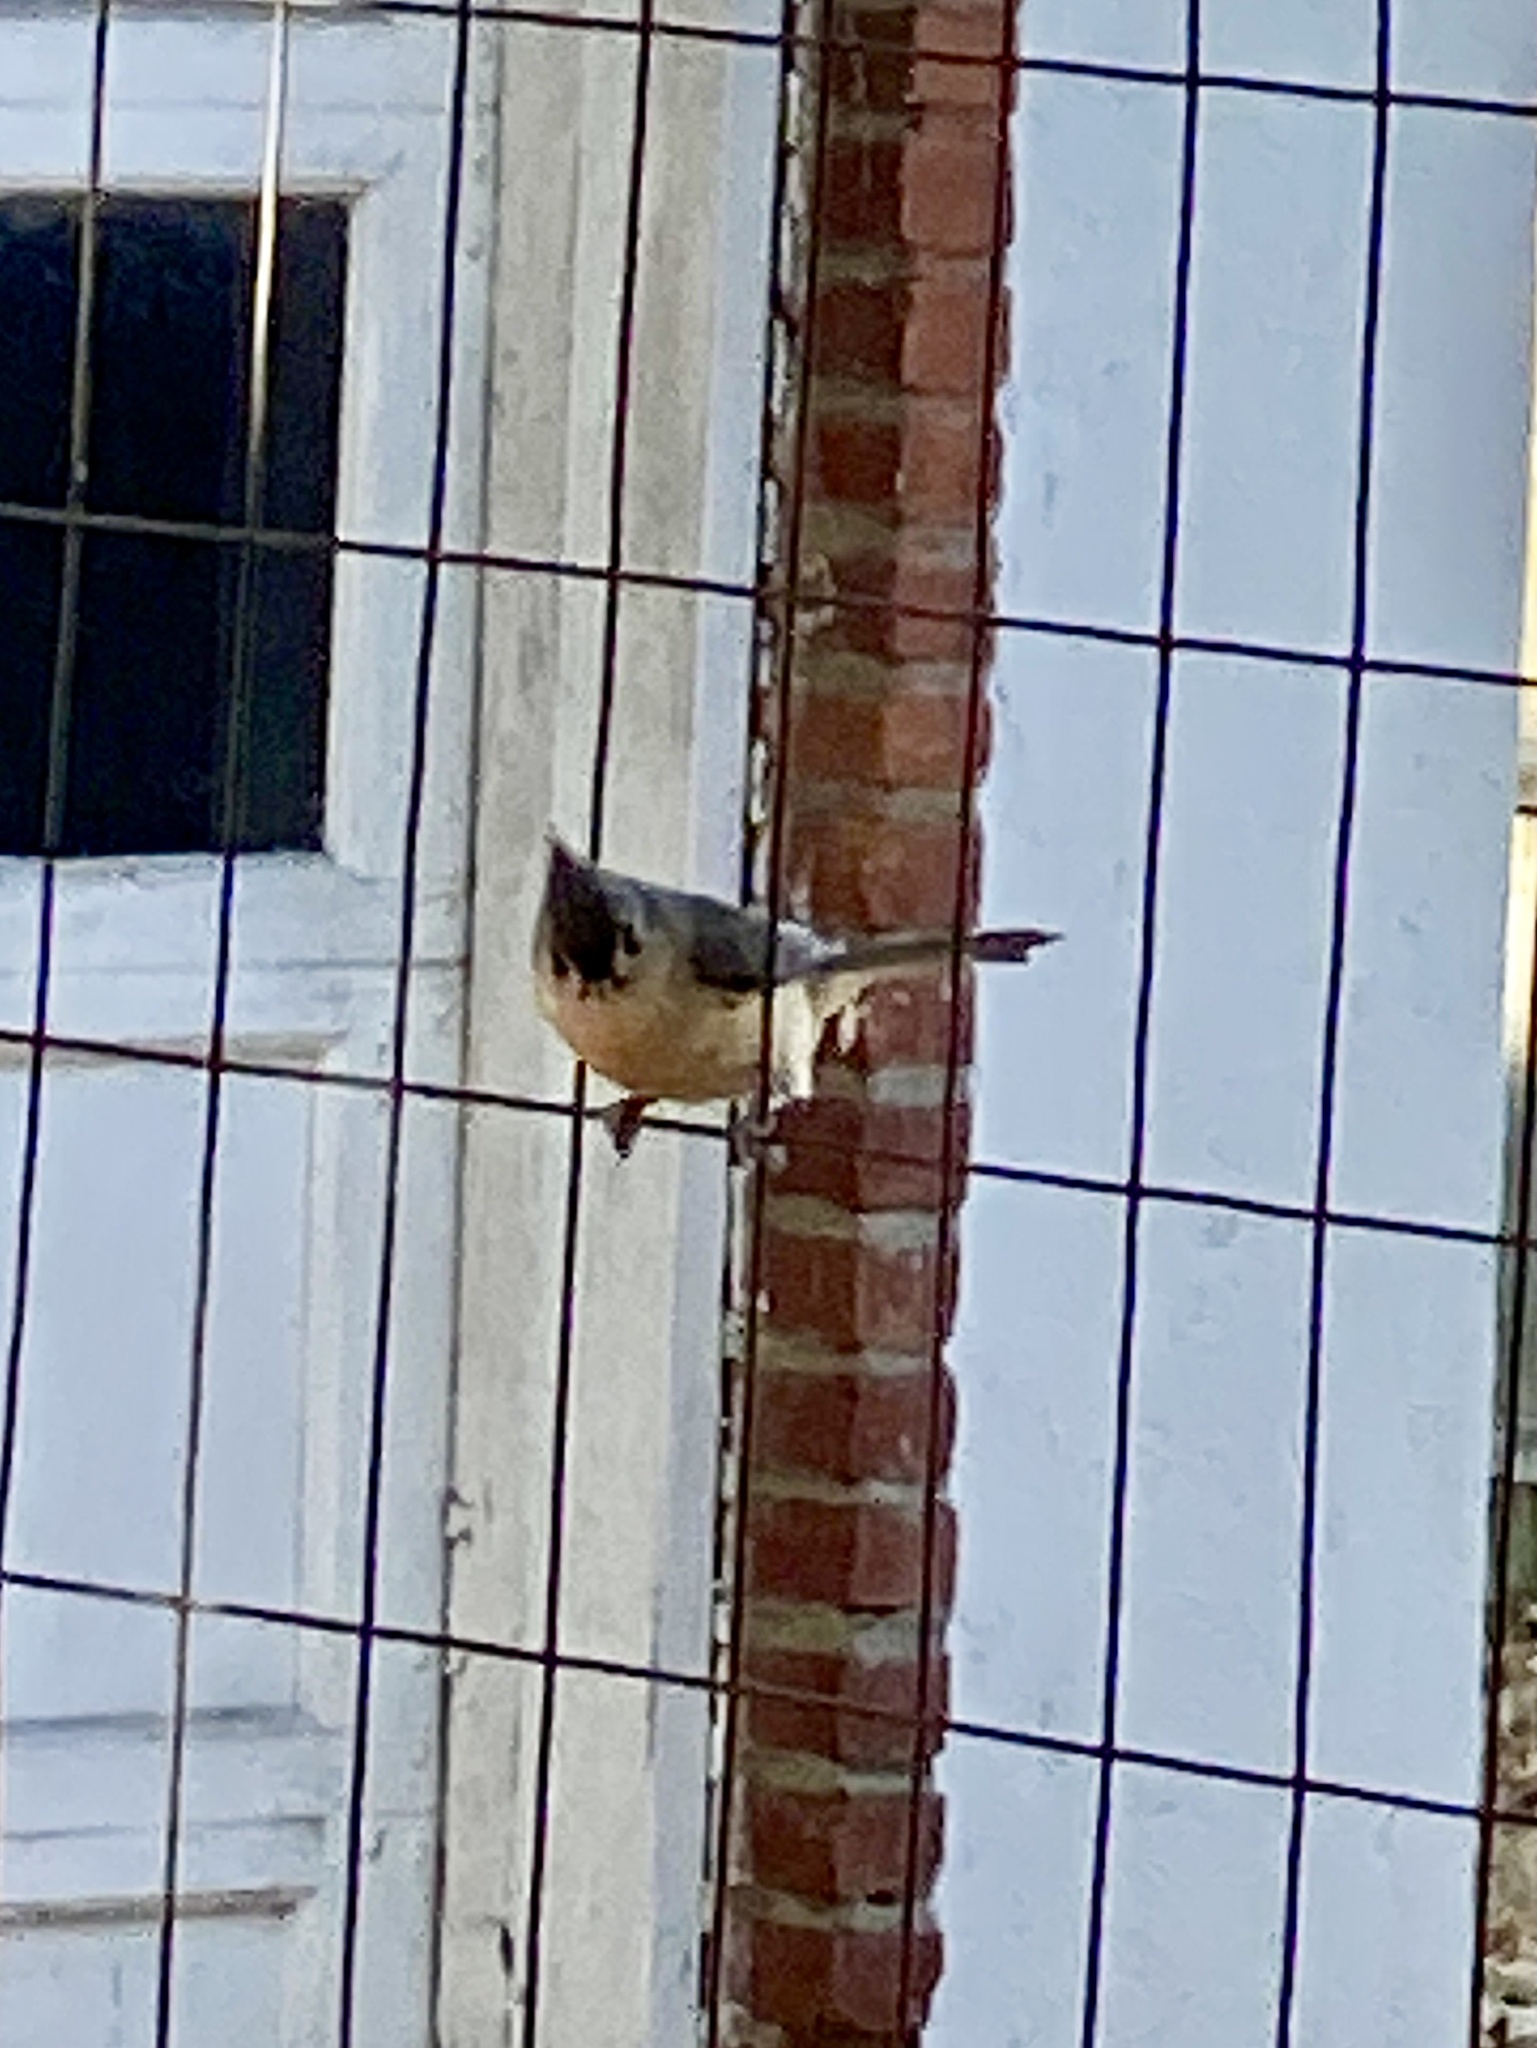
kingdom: Animalia
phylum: Chordata
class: Aves
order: Passeriformes
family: Paridae
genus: Baeolophus
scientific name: Baeolophus bicolor
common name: Tufted titmouse
